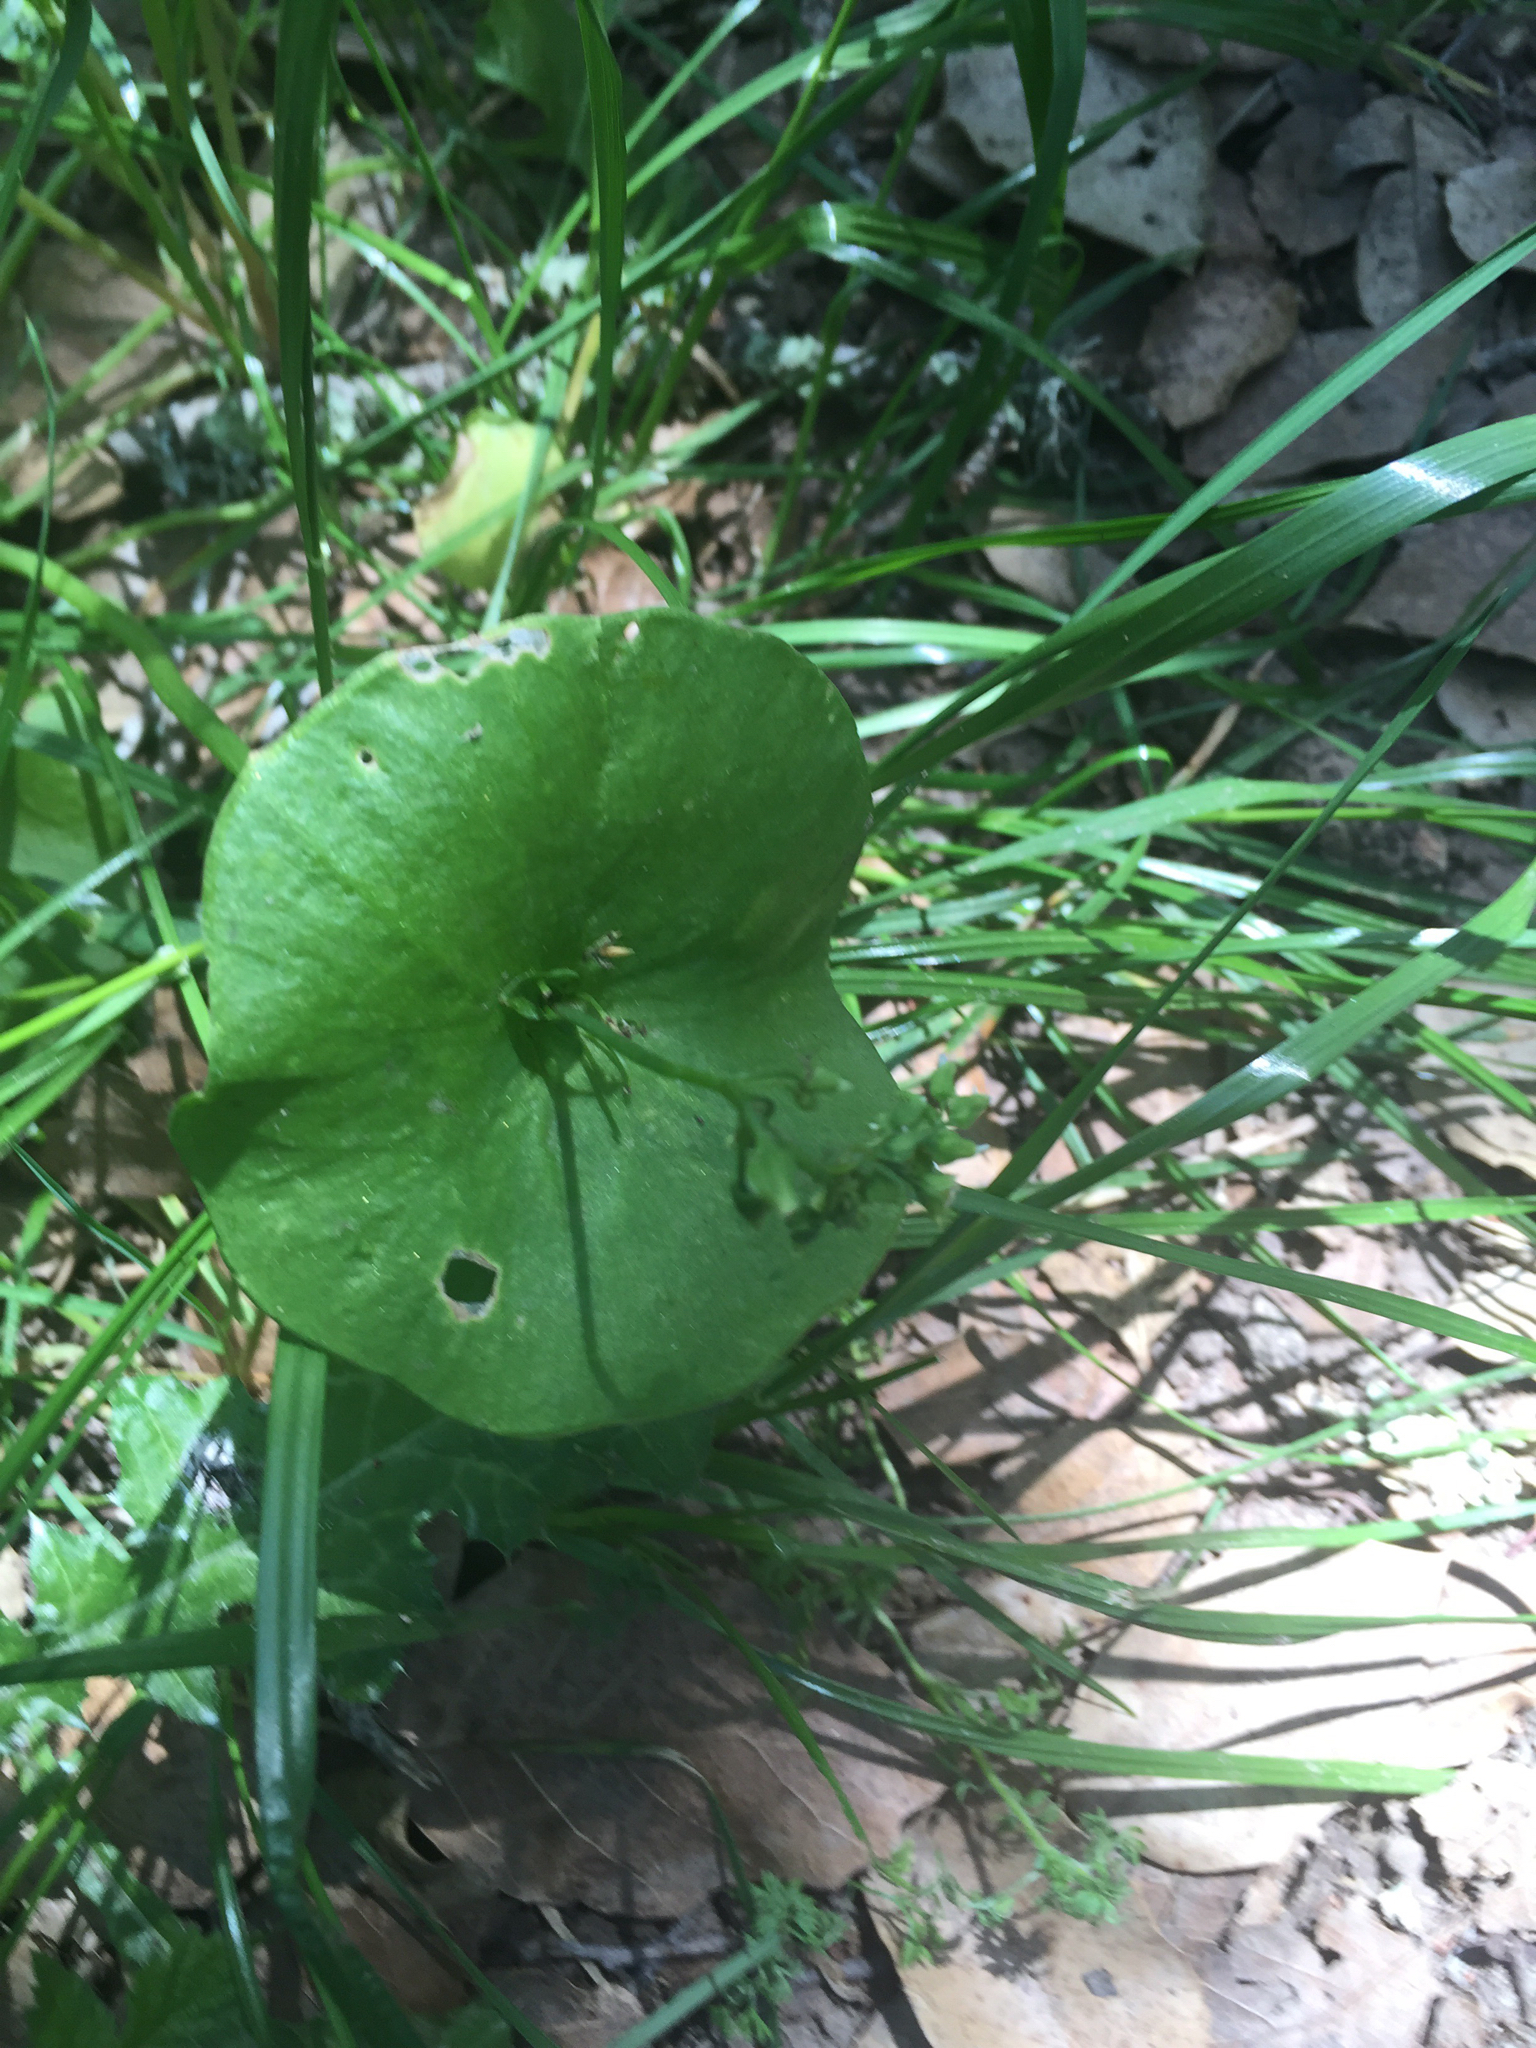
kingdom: Plantae
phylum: Tracheophyta
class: Magnoliopsida
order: Caryophyllales
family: Montiaceae
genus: Claytonia
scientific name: Claytonia perfoliata
